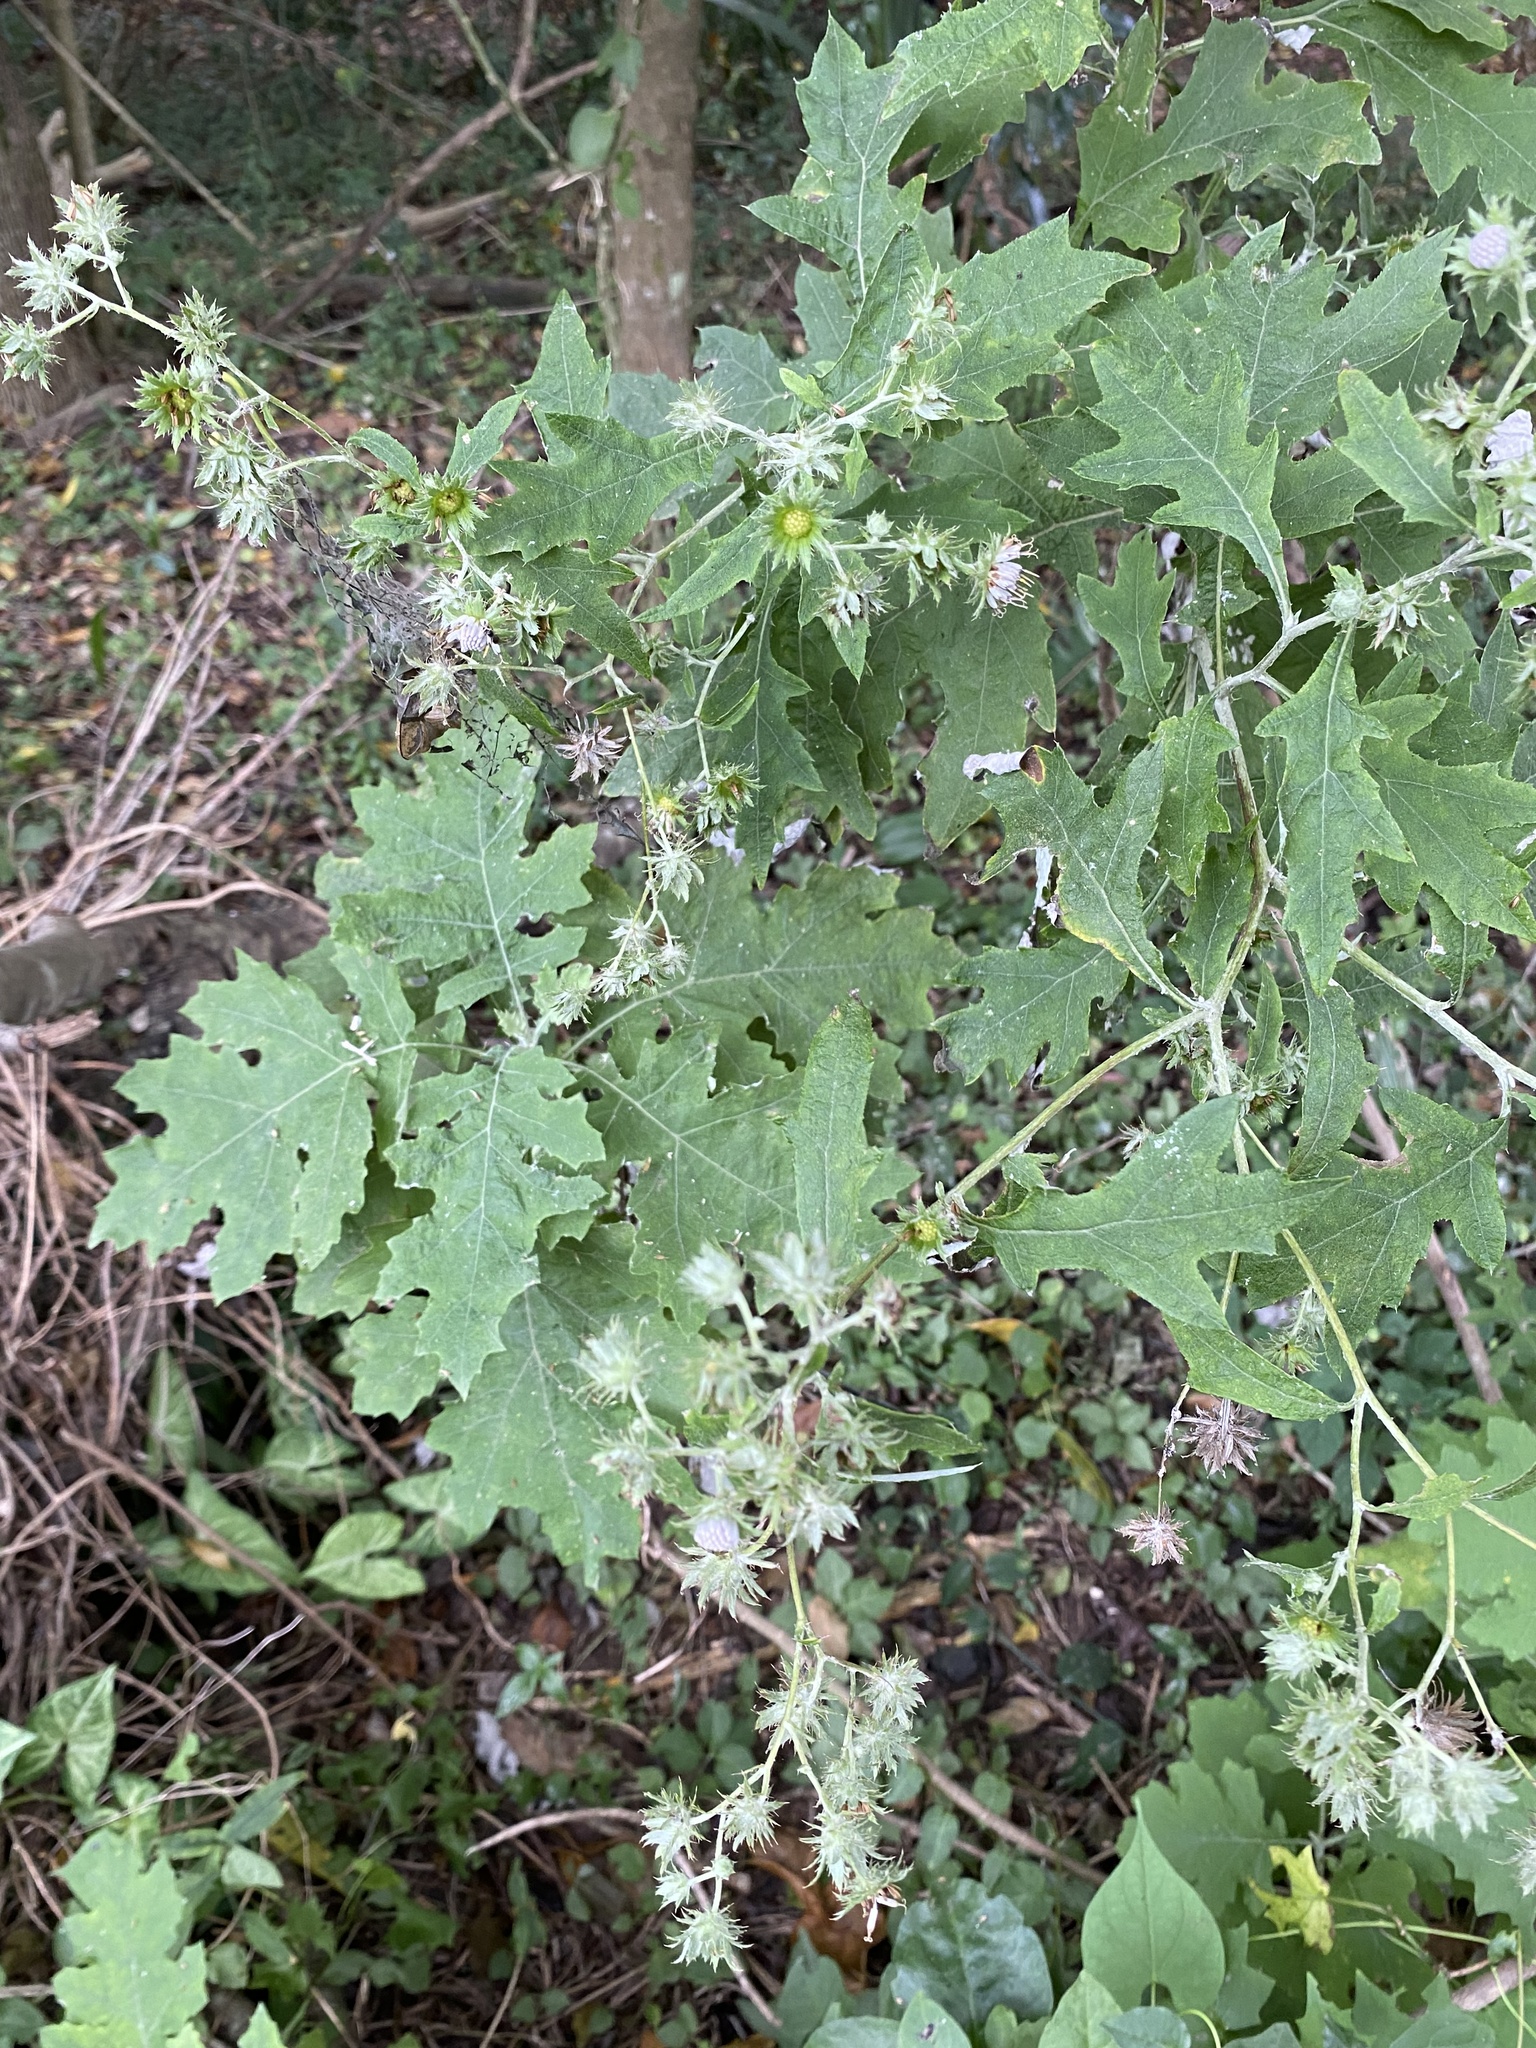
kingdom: Plantae
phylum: Tracheophyta
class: Magnoliopsida
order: Asterales
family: Asteraceae
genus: Berkheya
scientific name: Berkheya bipinnatifida
